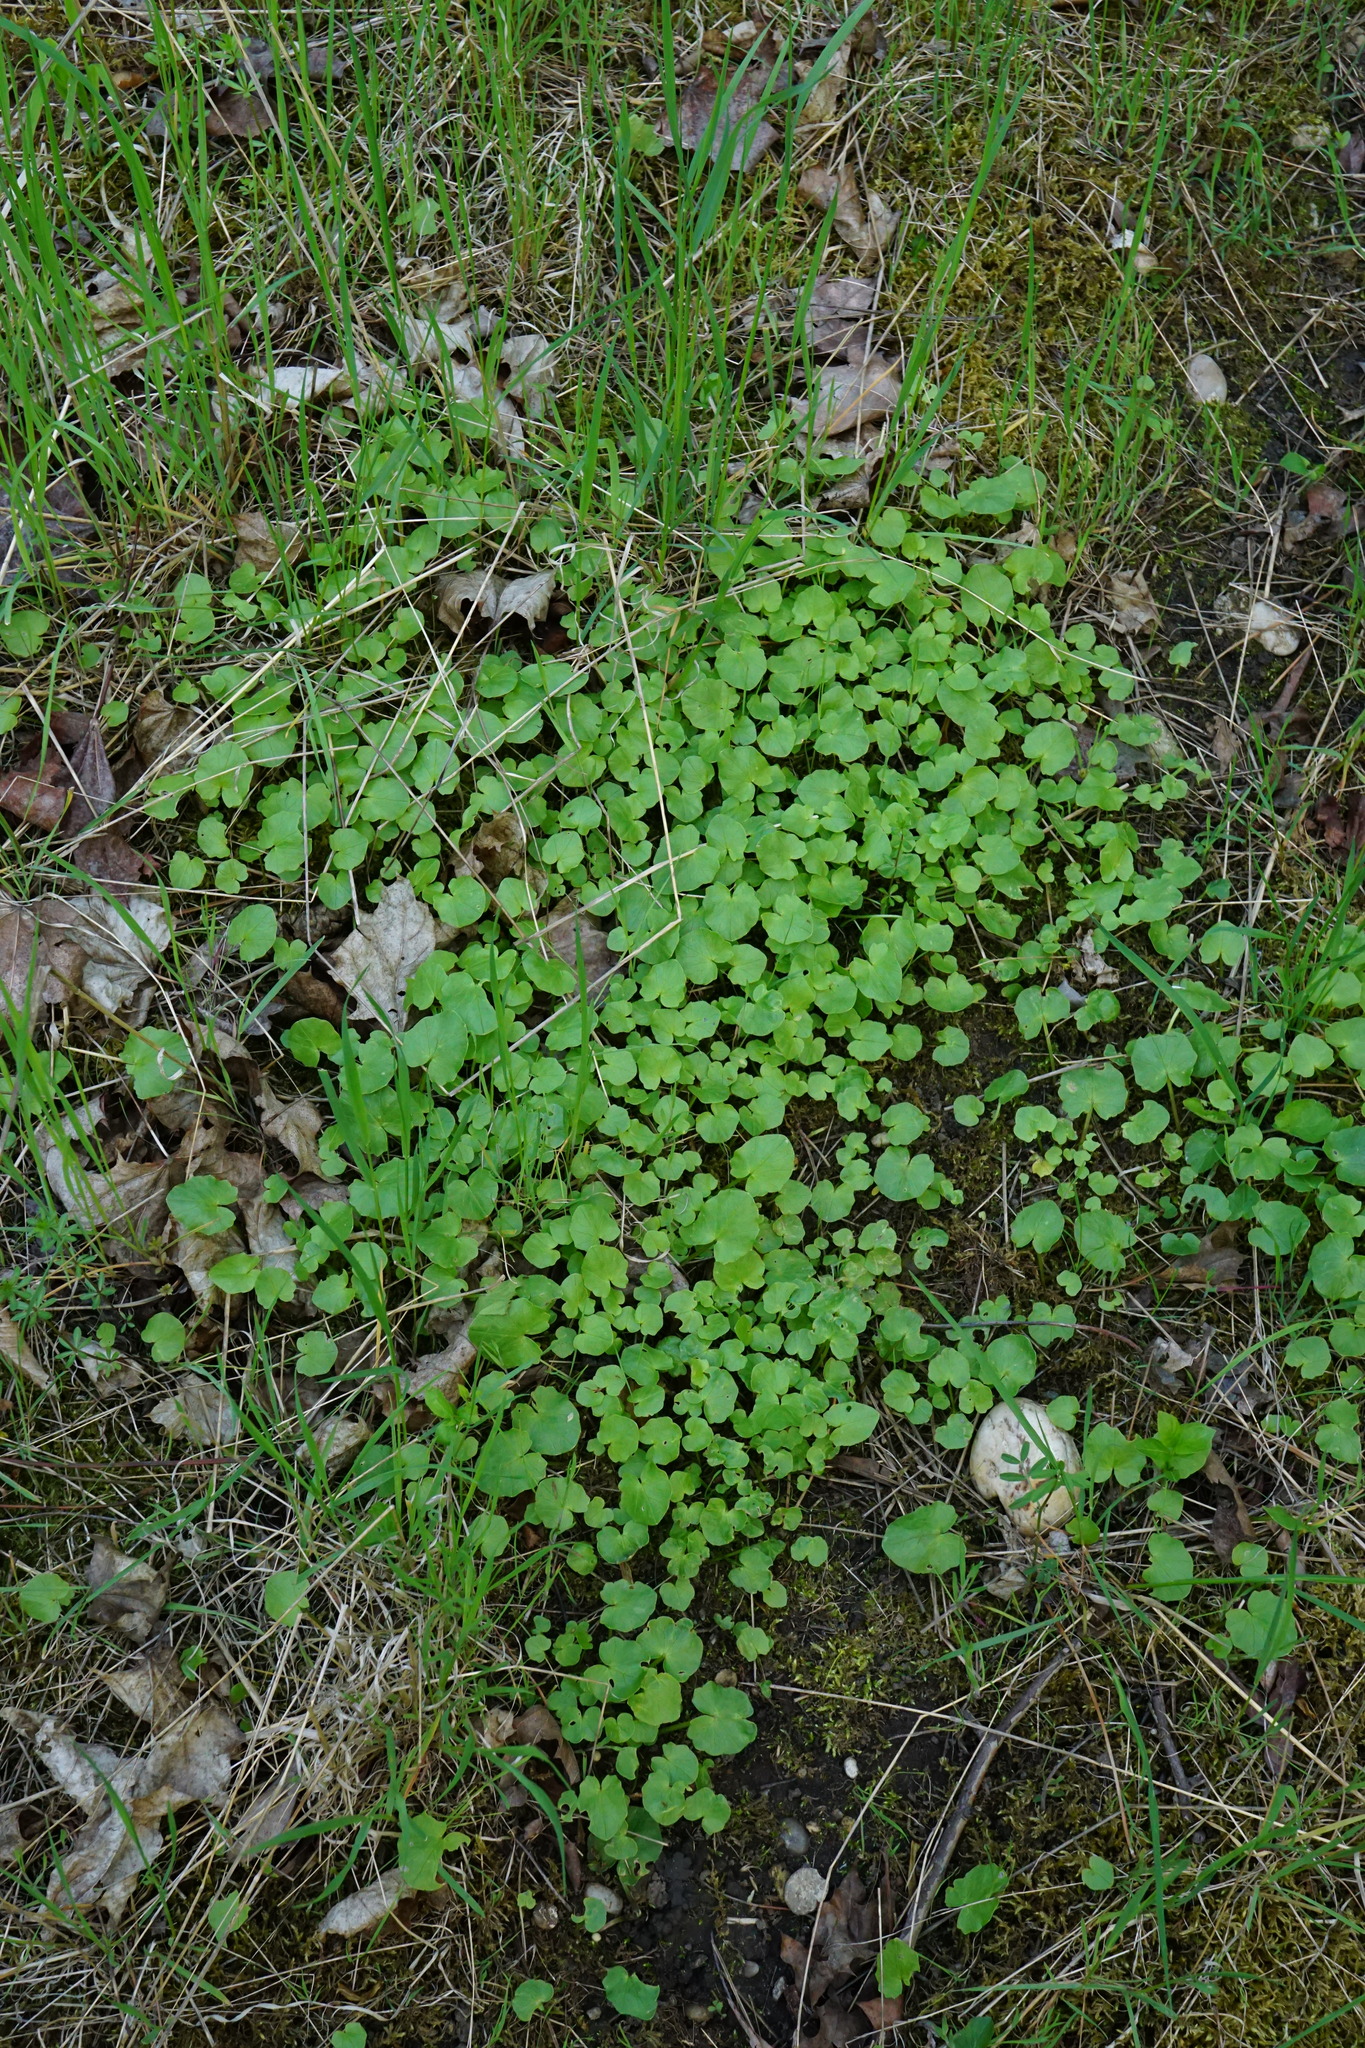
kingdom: Plantae
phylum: Tracheophyta
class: Magnoliopsida
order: Ranunculales
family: Ranunculaceae
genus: Ficaria
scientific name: Ficaria verna
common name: Lesser celandine
